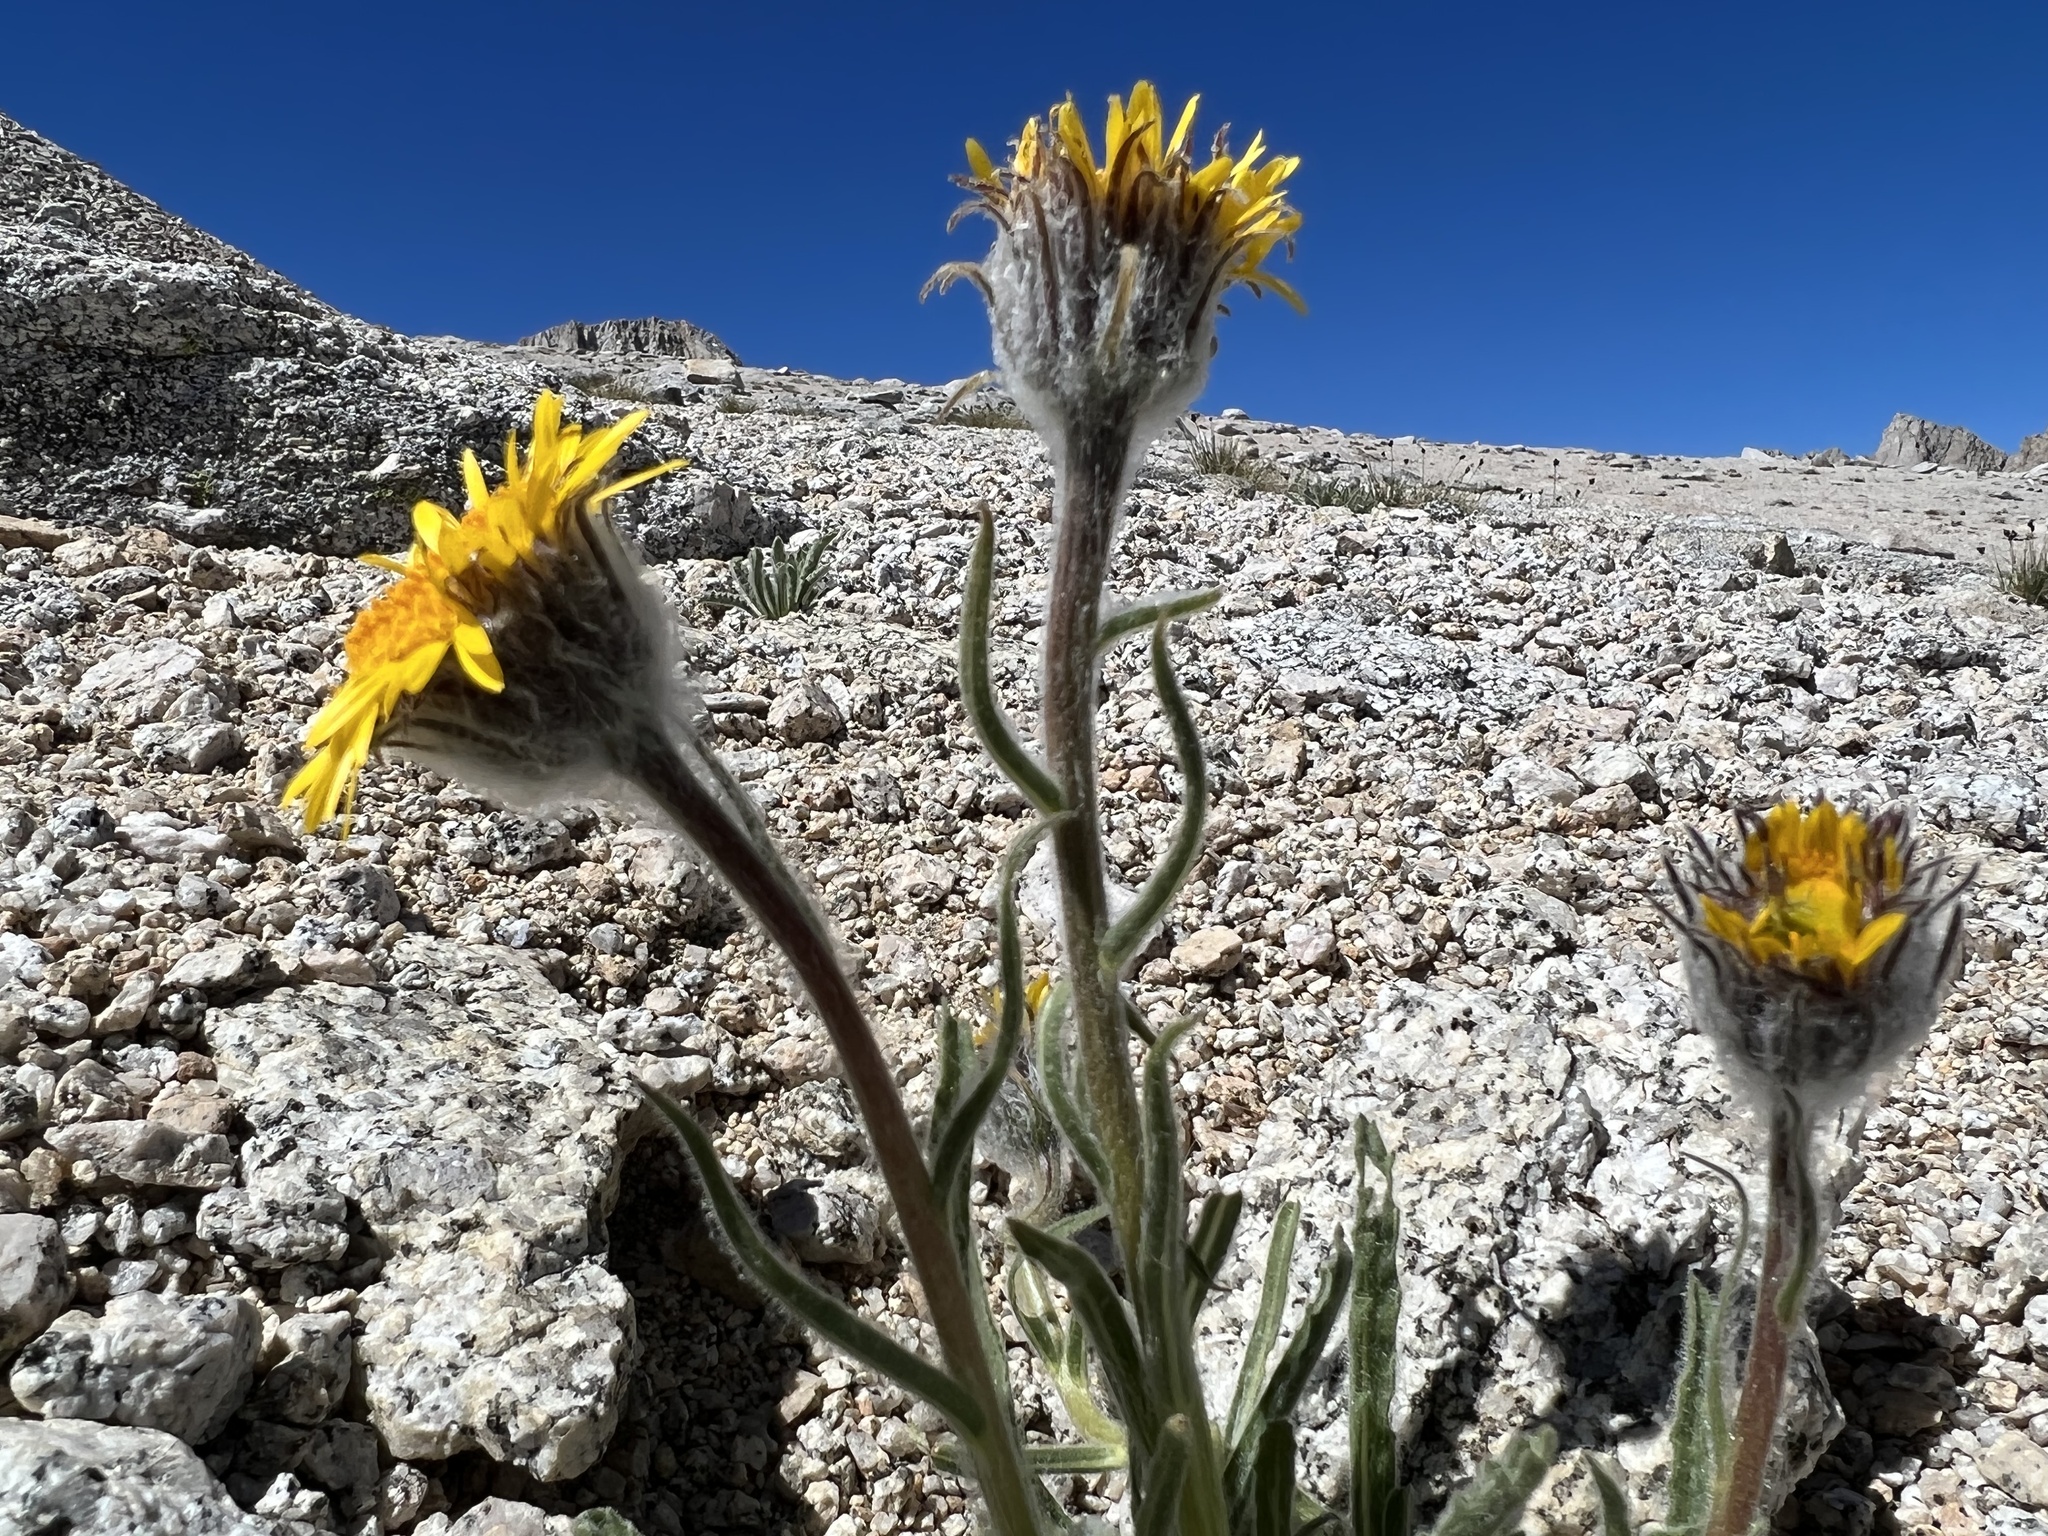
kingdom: Plantae
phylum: Tracheophyta
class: Magnoliopsida
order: Asterales
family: Asteraceae
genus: Hulsea
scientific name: Hulsea algida
